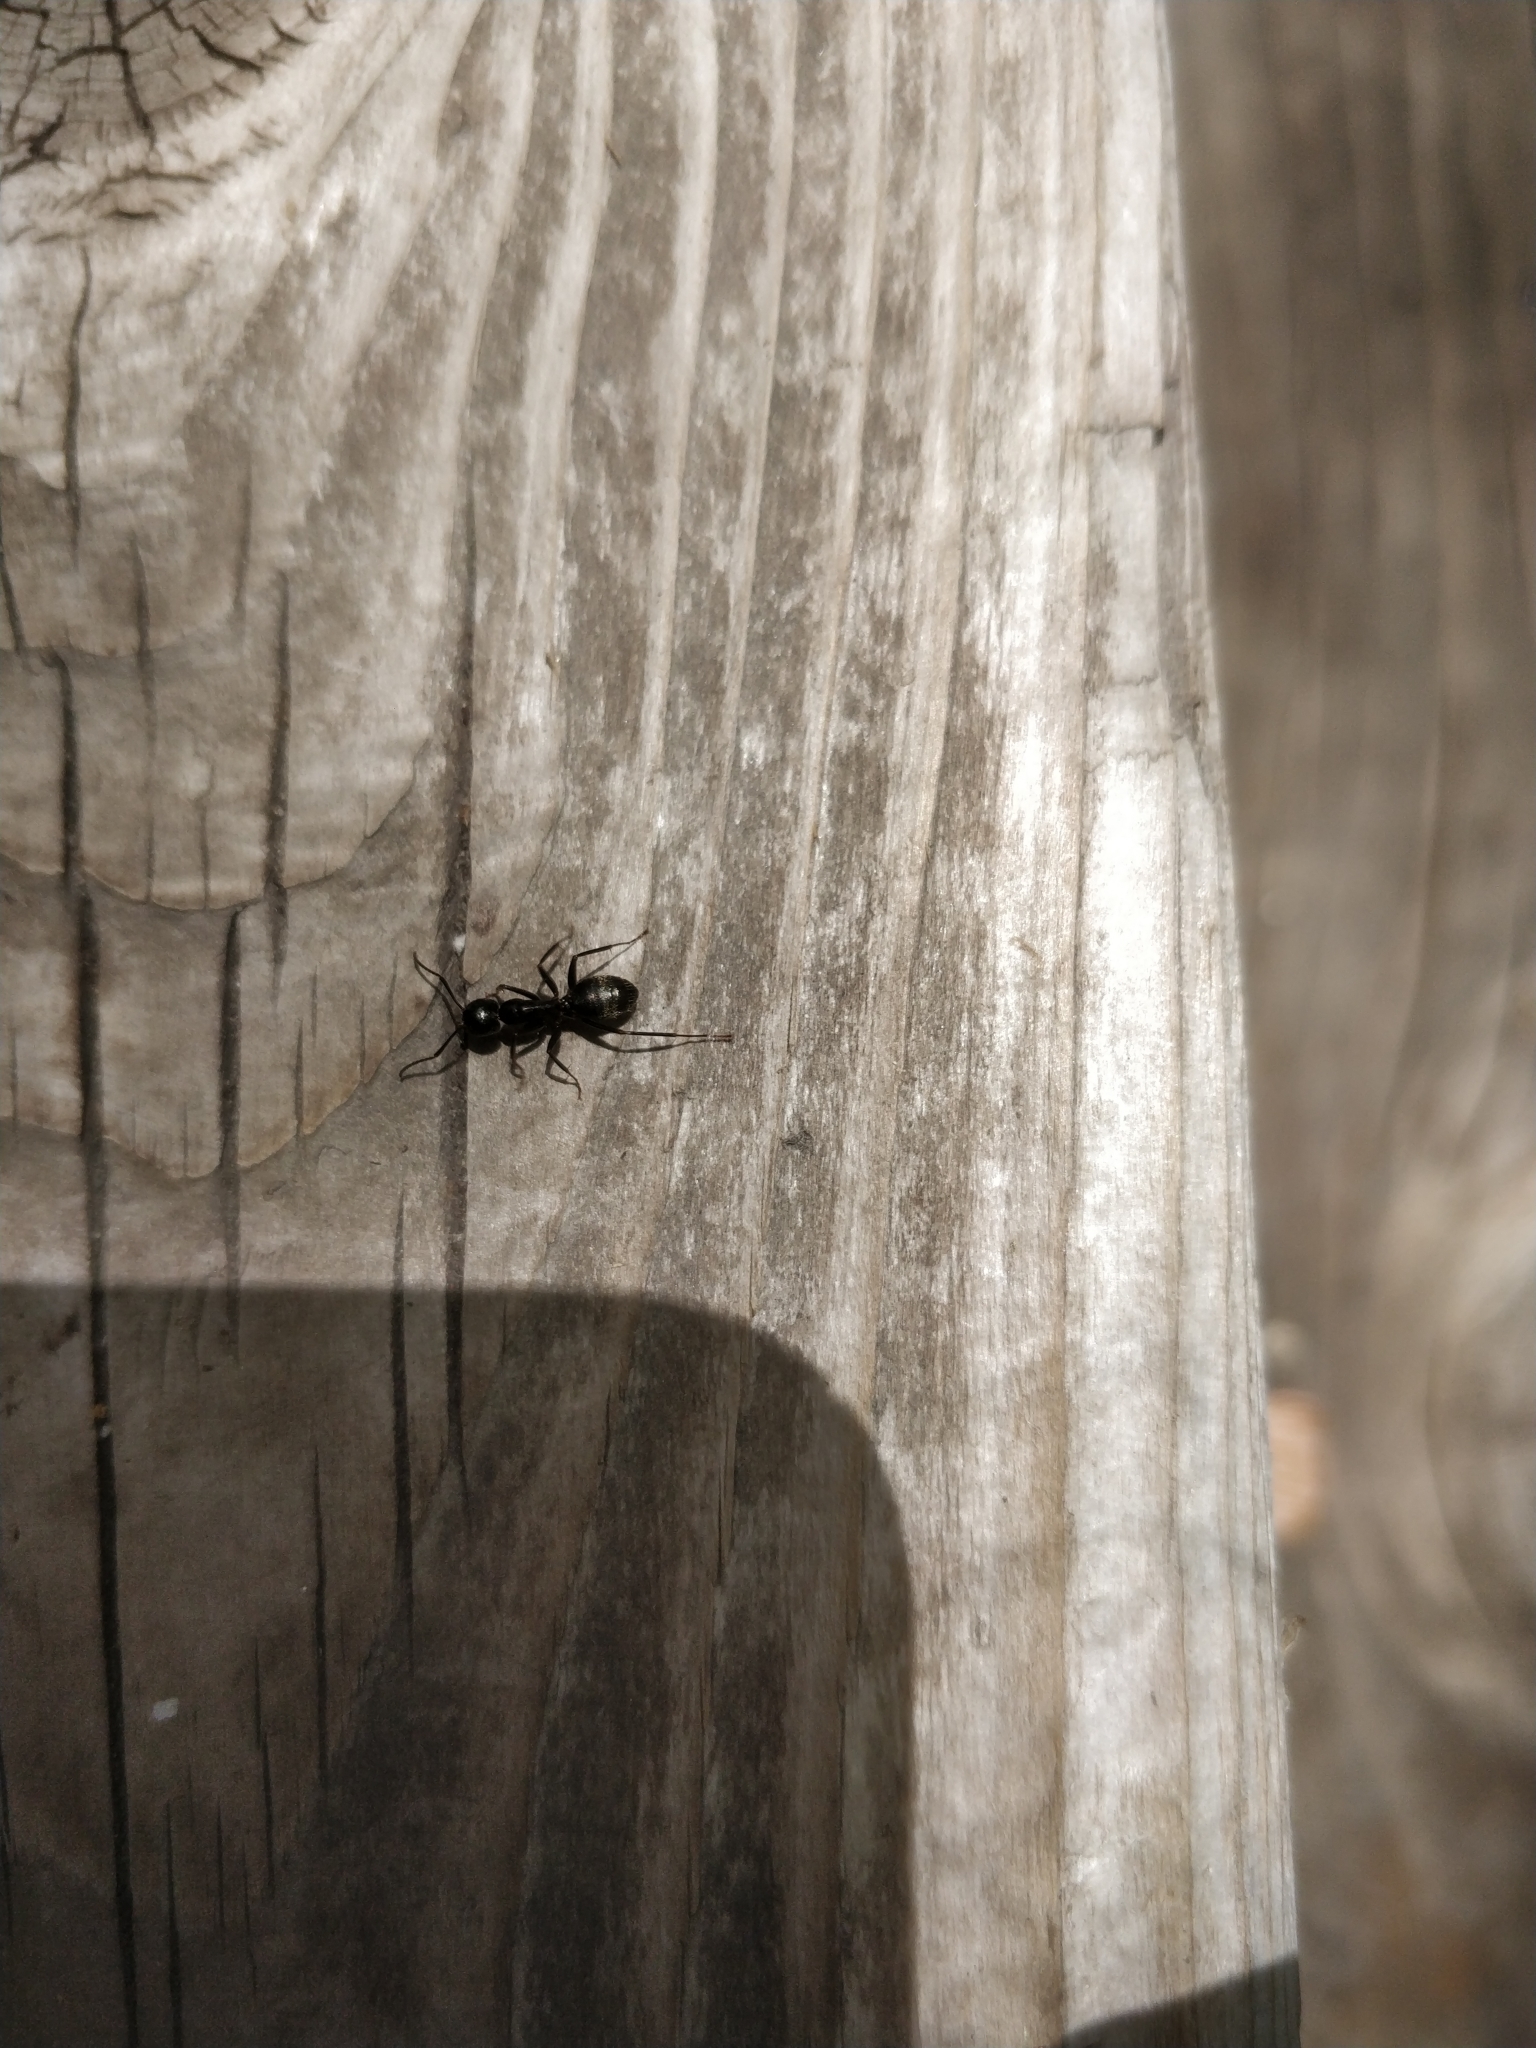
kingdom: Animalia
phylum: Arthropoda
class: Insecta
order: Hymenoptera
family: Formicidae
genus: Camponotus
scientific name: Camponotus pennsylvanicus
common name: Black carpenter ant
